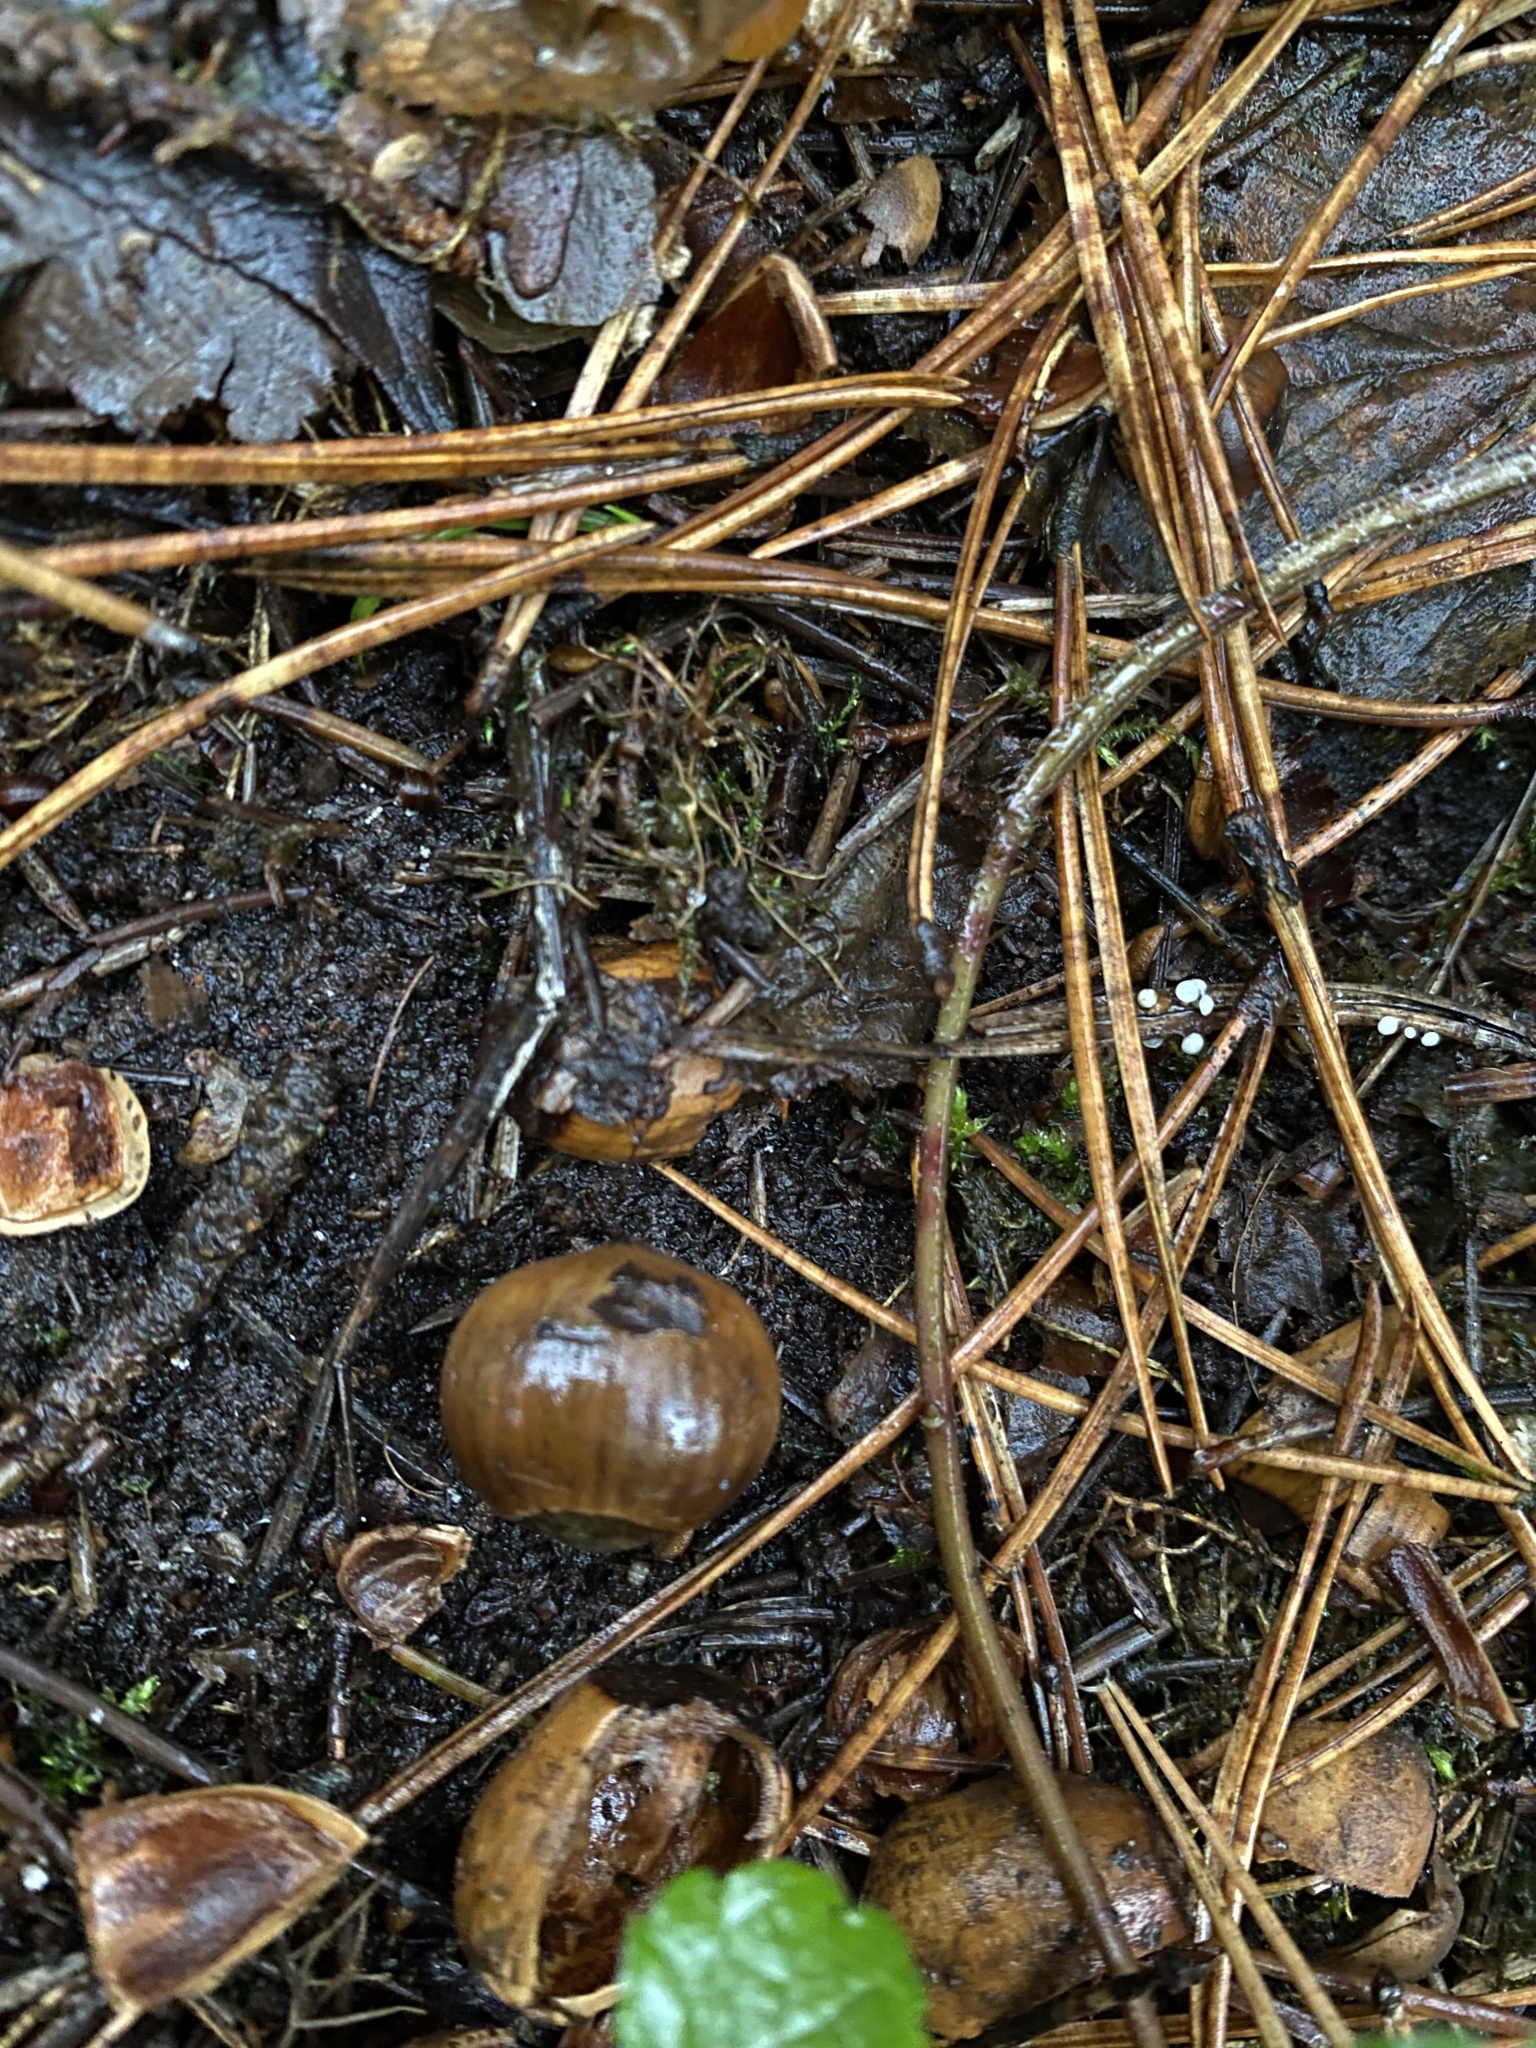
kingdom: Plantae
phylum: Tracheophyta
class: Magnoliopsida
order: Fagales
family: Betulaceae
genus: Corylus
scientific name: Corylus avellana
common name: European hazel
